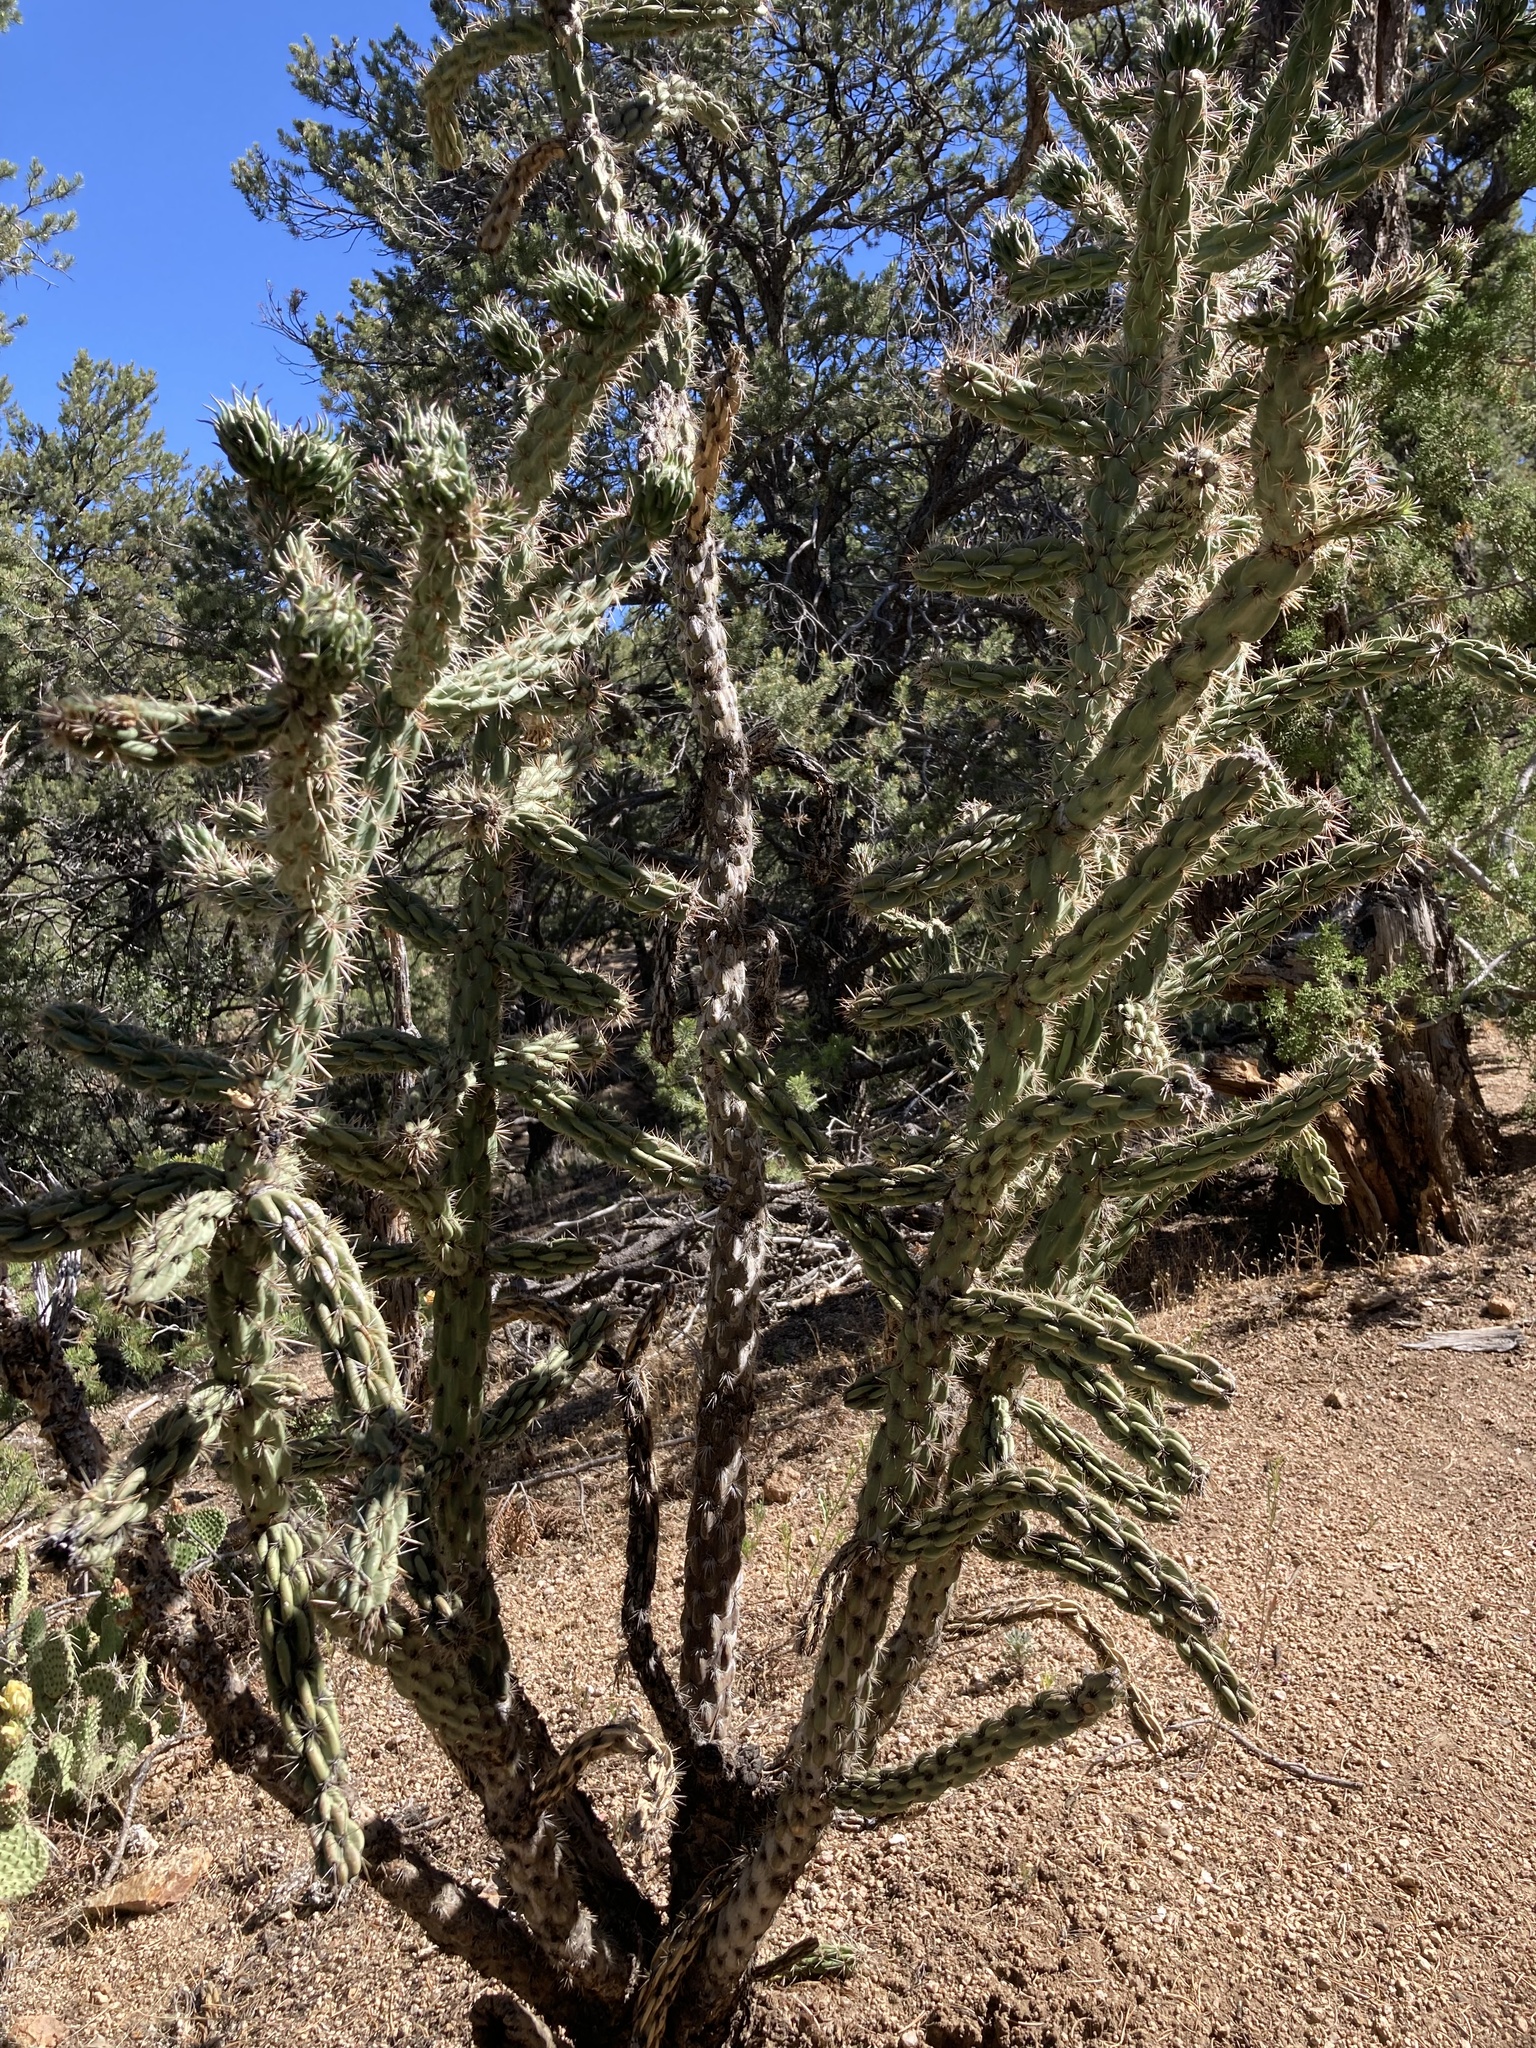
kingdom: Plantae
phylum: Tracheophyta
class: Magnoliopsida
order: Caryophyllales
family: Cactaceae
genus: Cylindropuntia
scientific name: Cylindropuntia imbricata
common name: Candelabrum cactus
